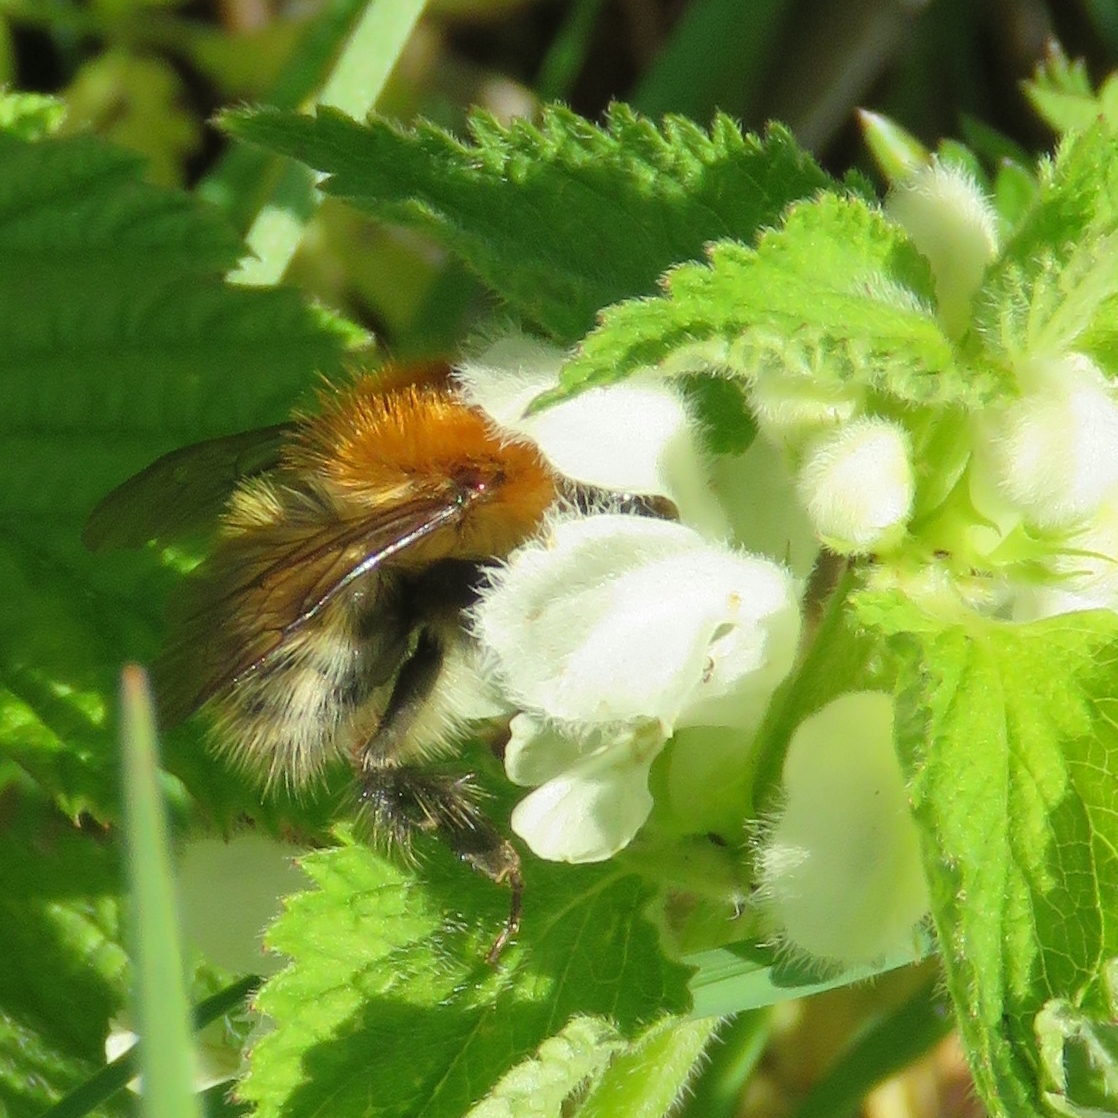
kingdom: Animalia
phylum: Arthropoda
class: Insecta
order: Hymenoptera
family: Apidae
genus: Bombus
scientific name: Bombus pascuorum
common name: Common carder bee
